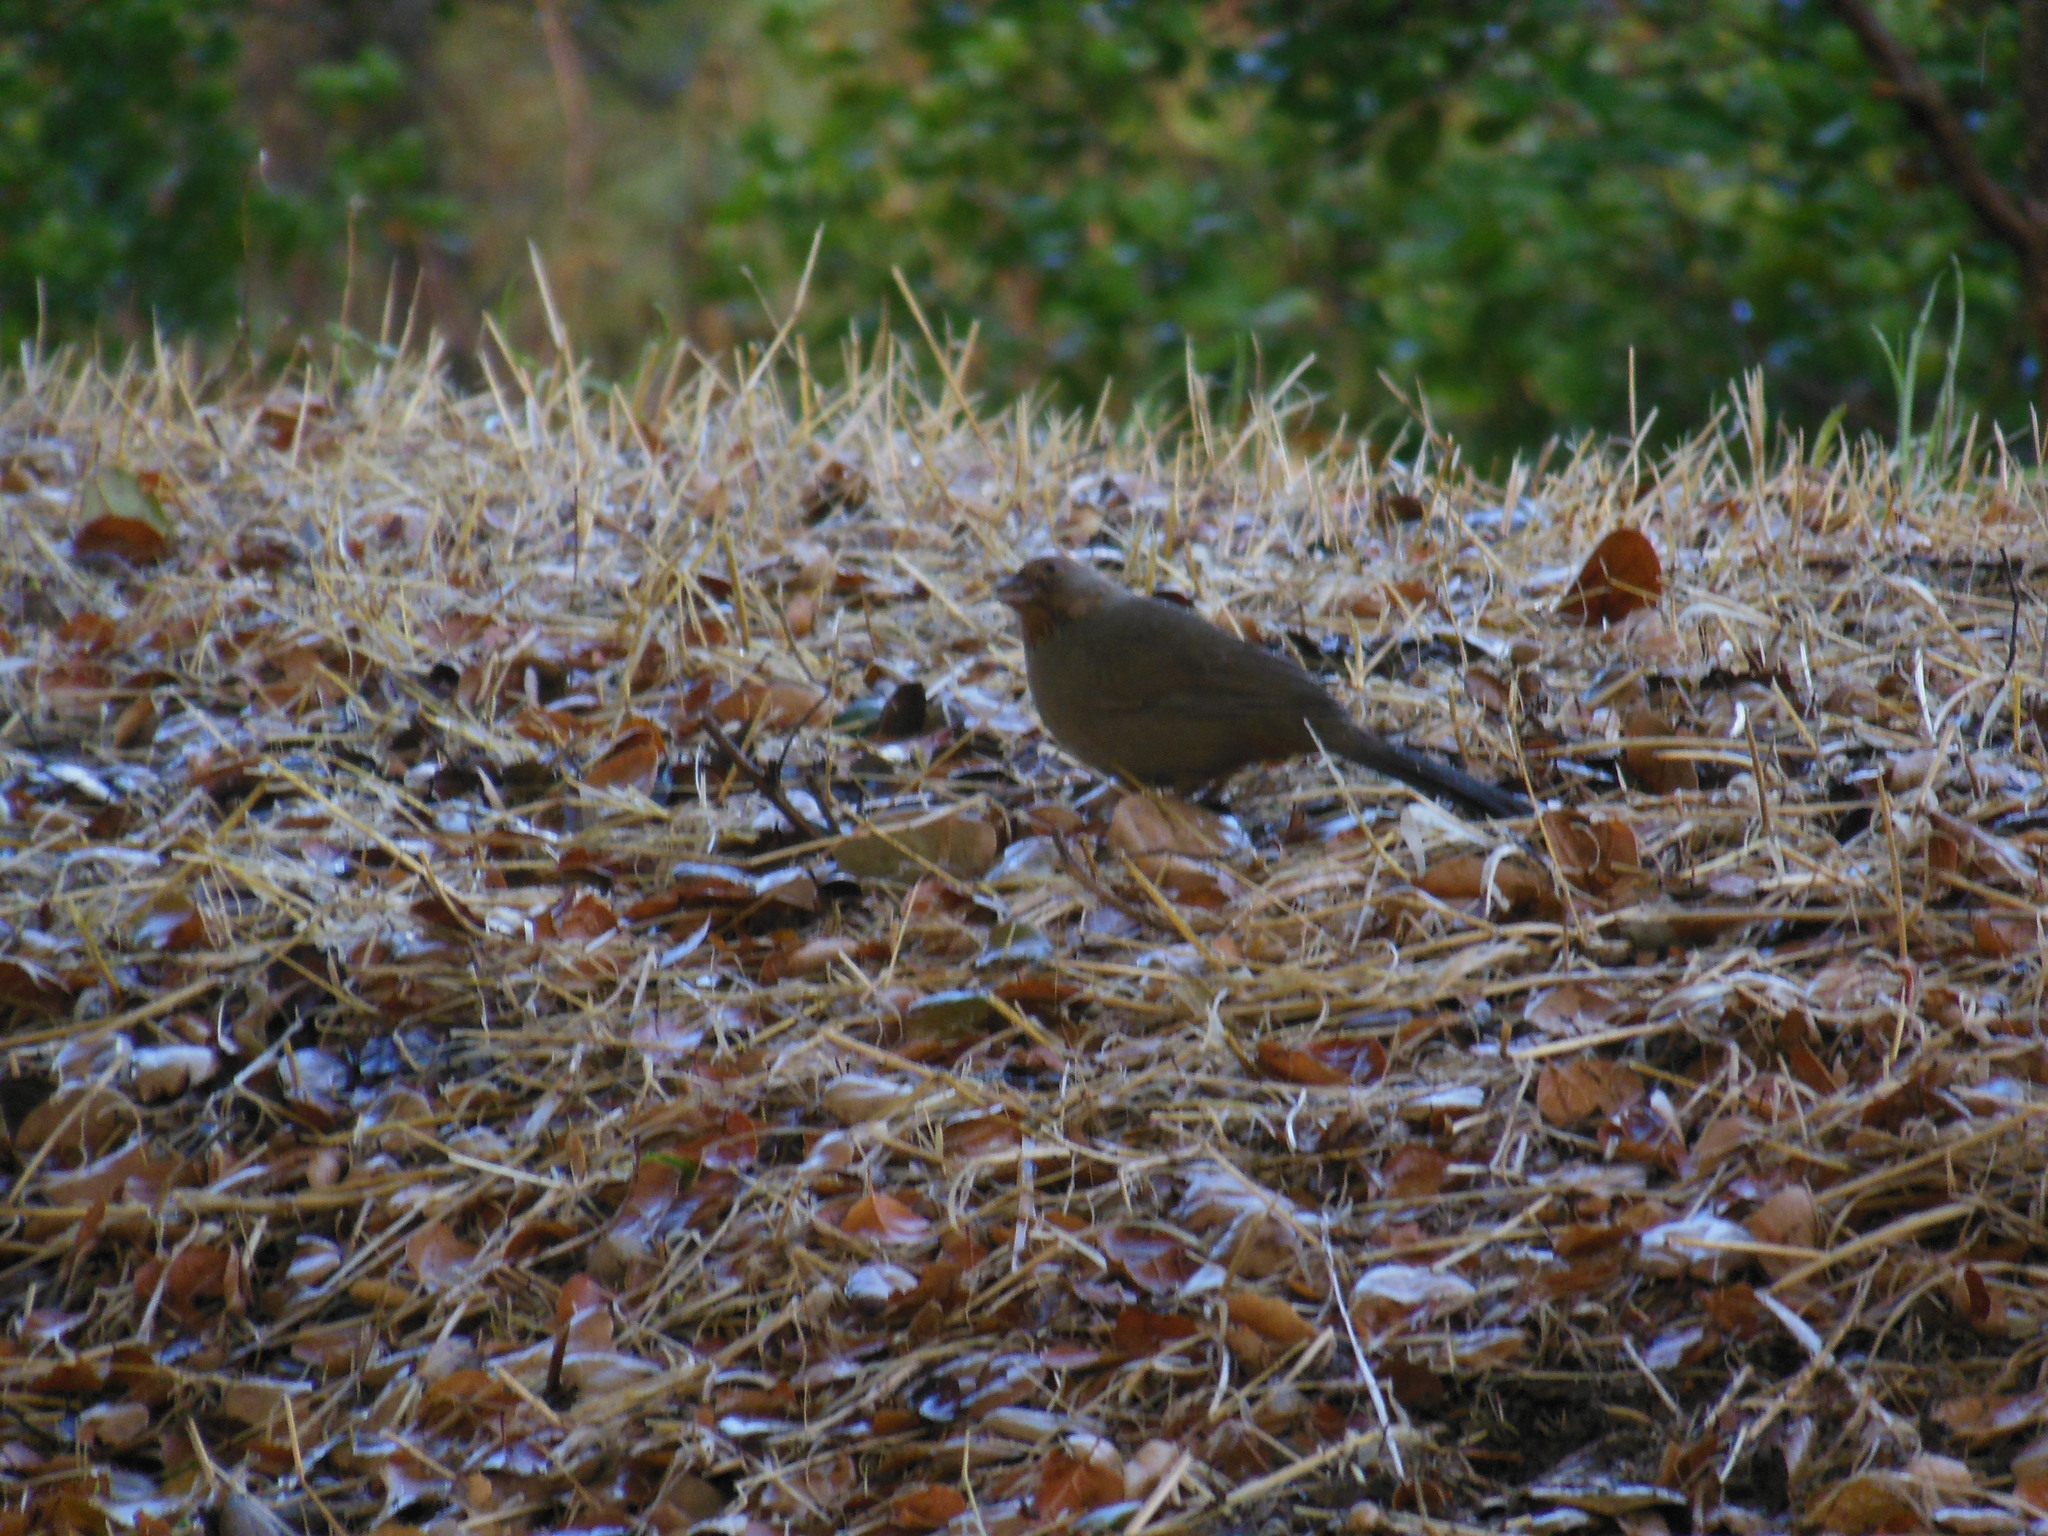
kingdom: Animalia
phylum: Chordata
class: Aves
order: Passeriformes
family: Passerellidae
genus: Melozone
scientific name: Melozone crissalis
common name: California towhee
